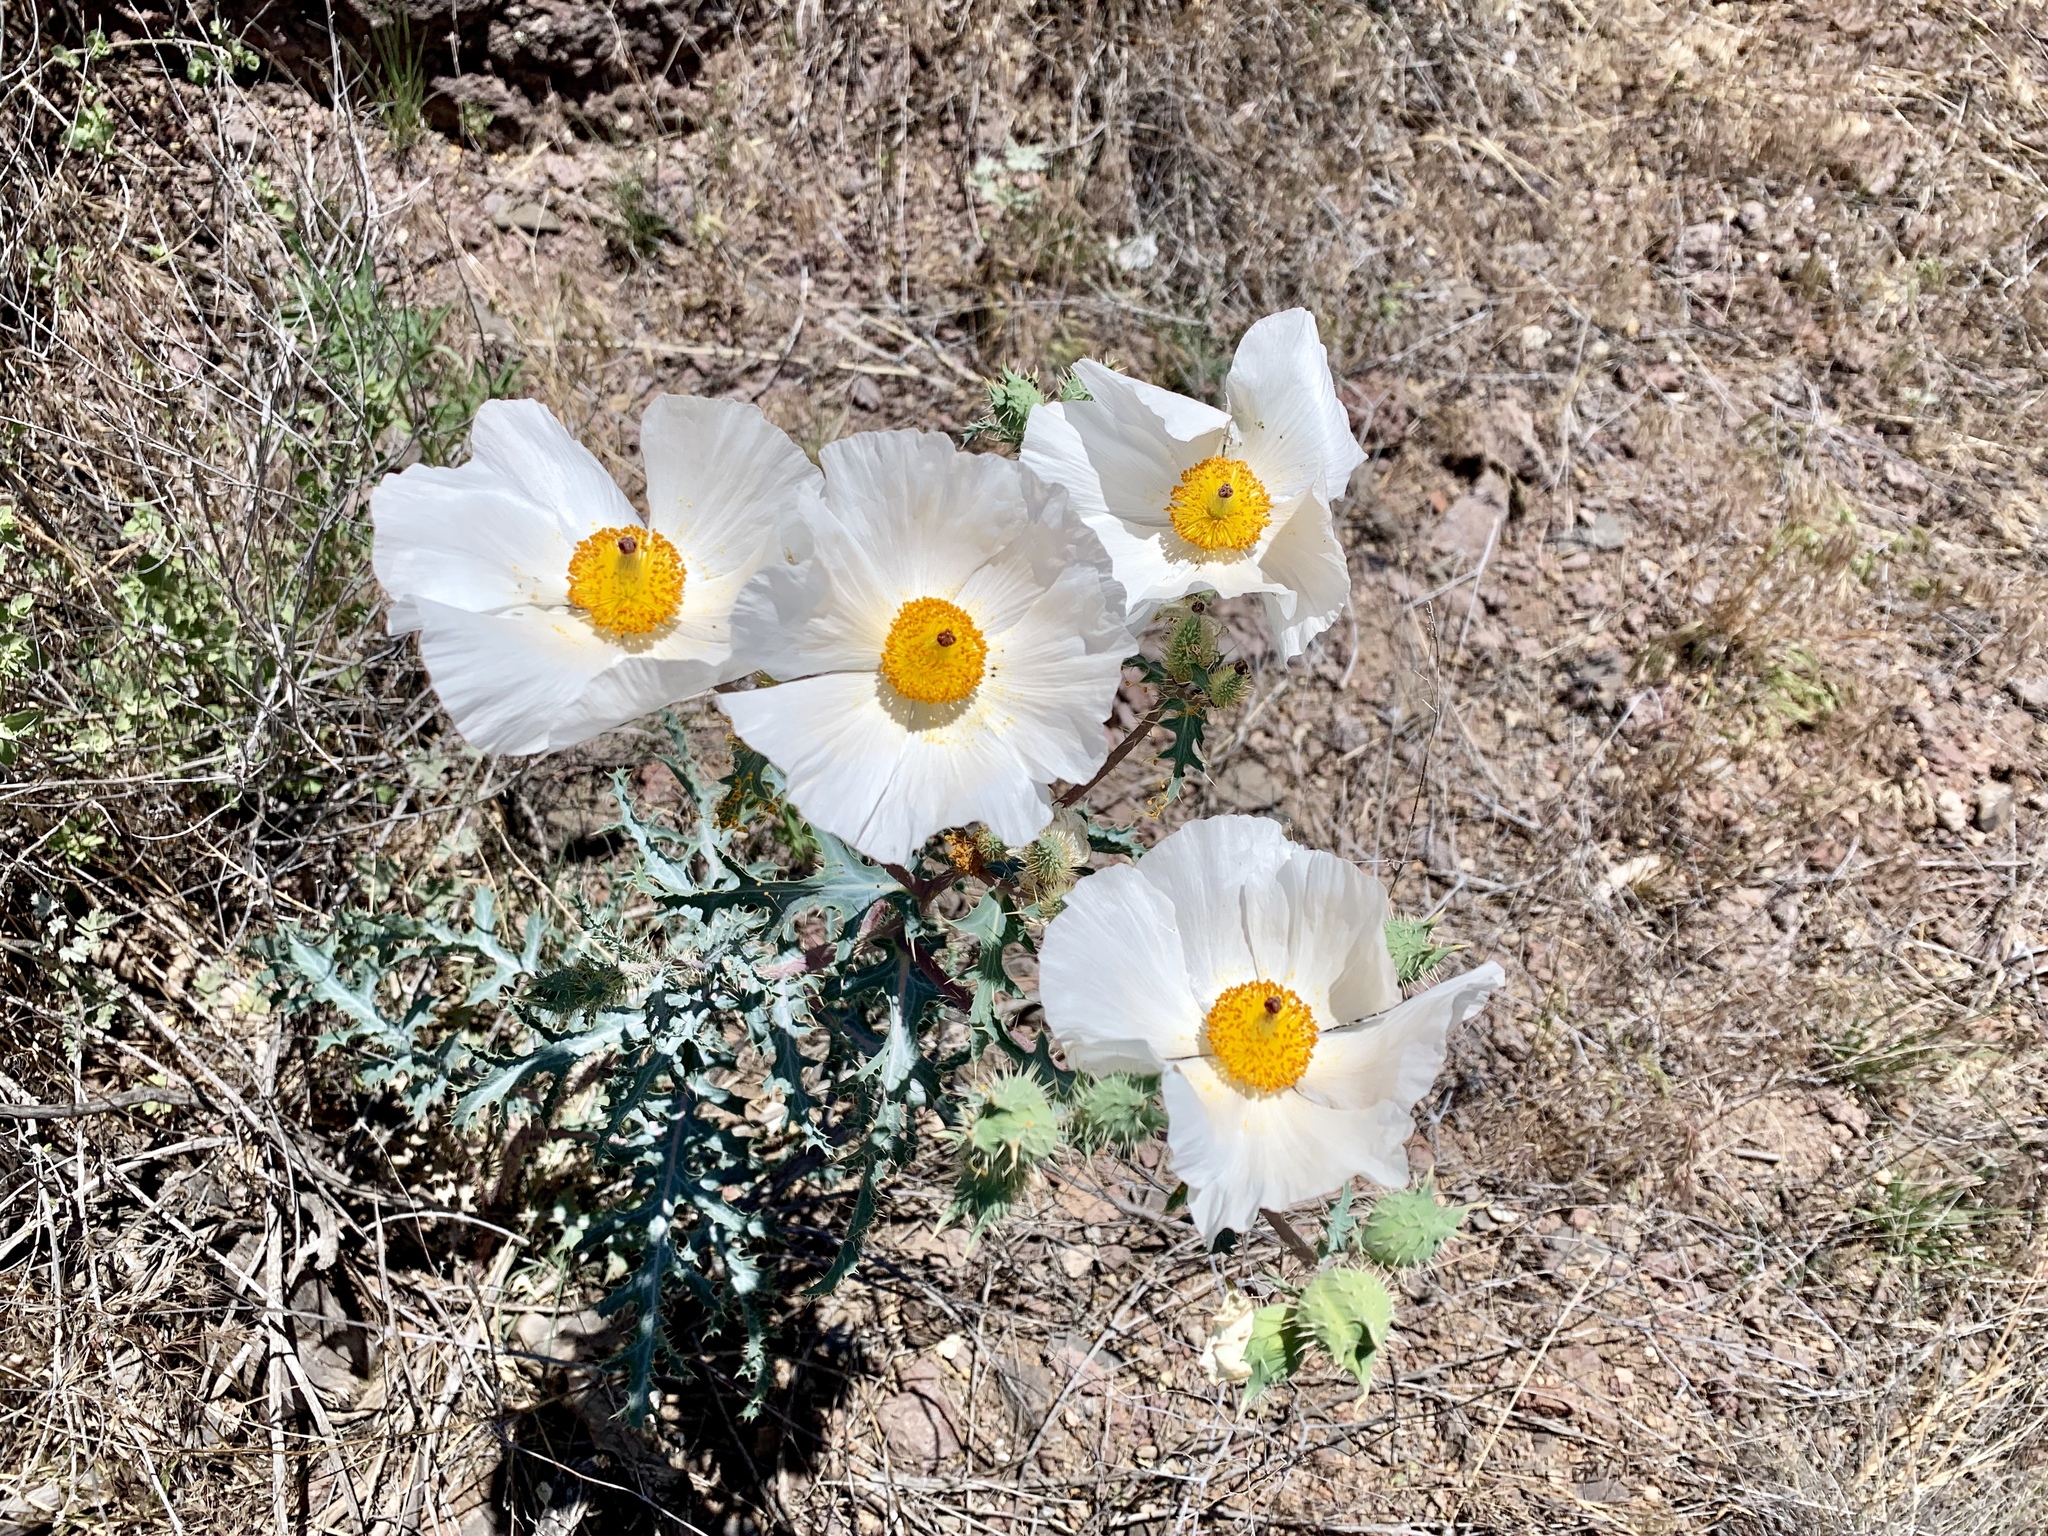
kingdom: Plantae
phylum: Tracheophyta
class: Magnoliopsida
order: Ranunculales
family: Papaveraceae
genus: Argemone
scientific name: Argemone pleiacantha
